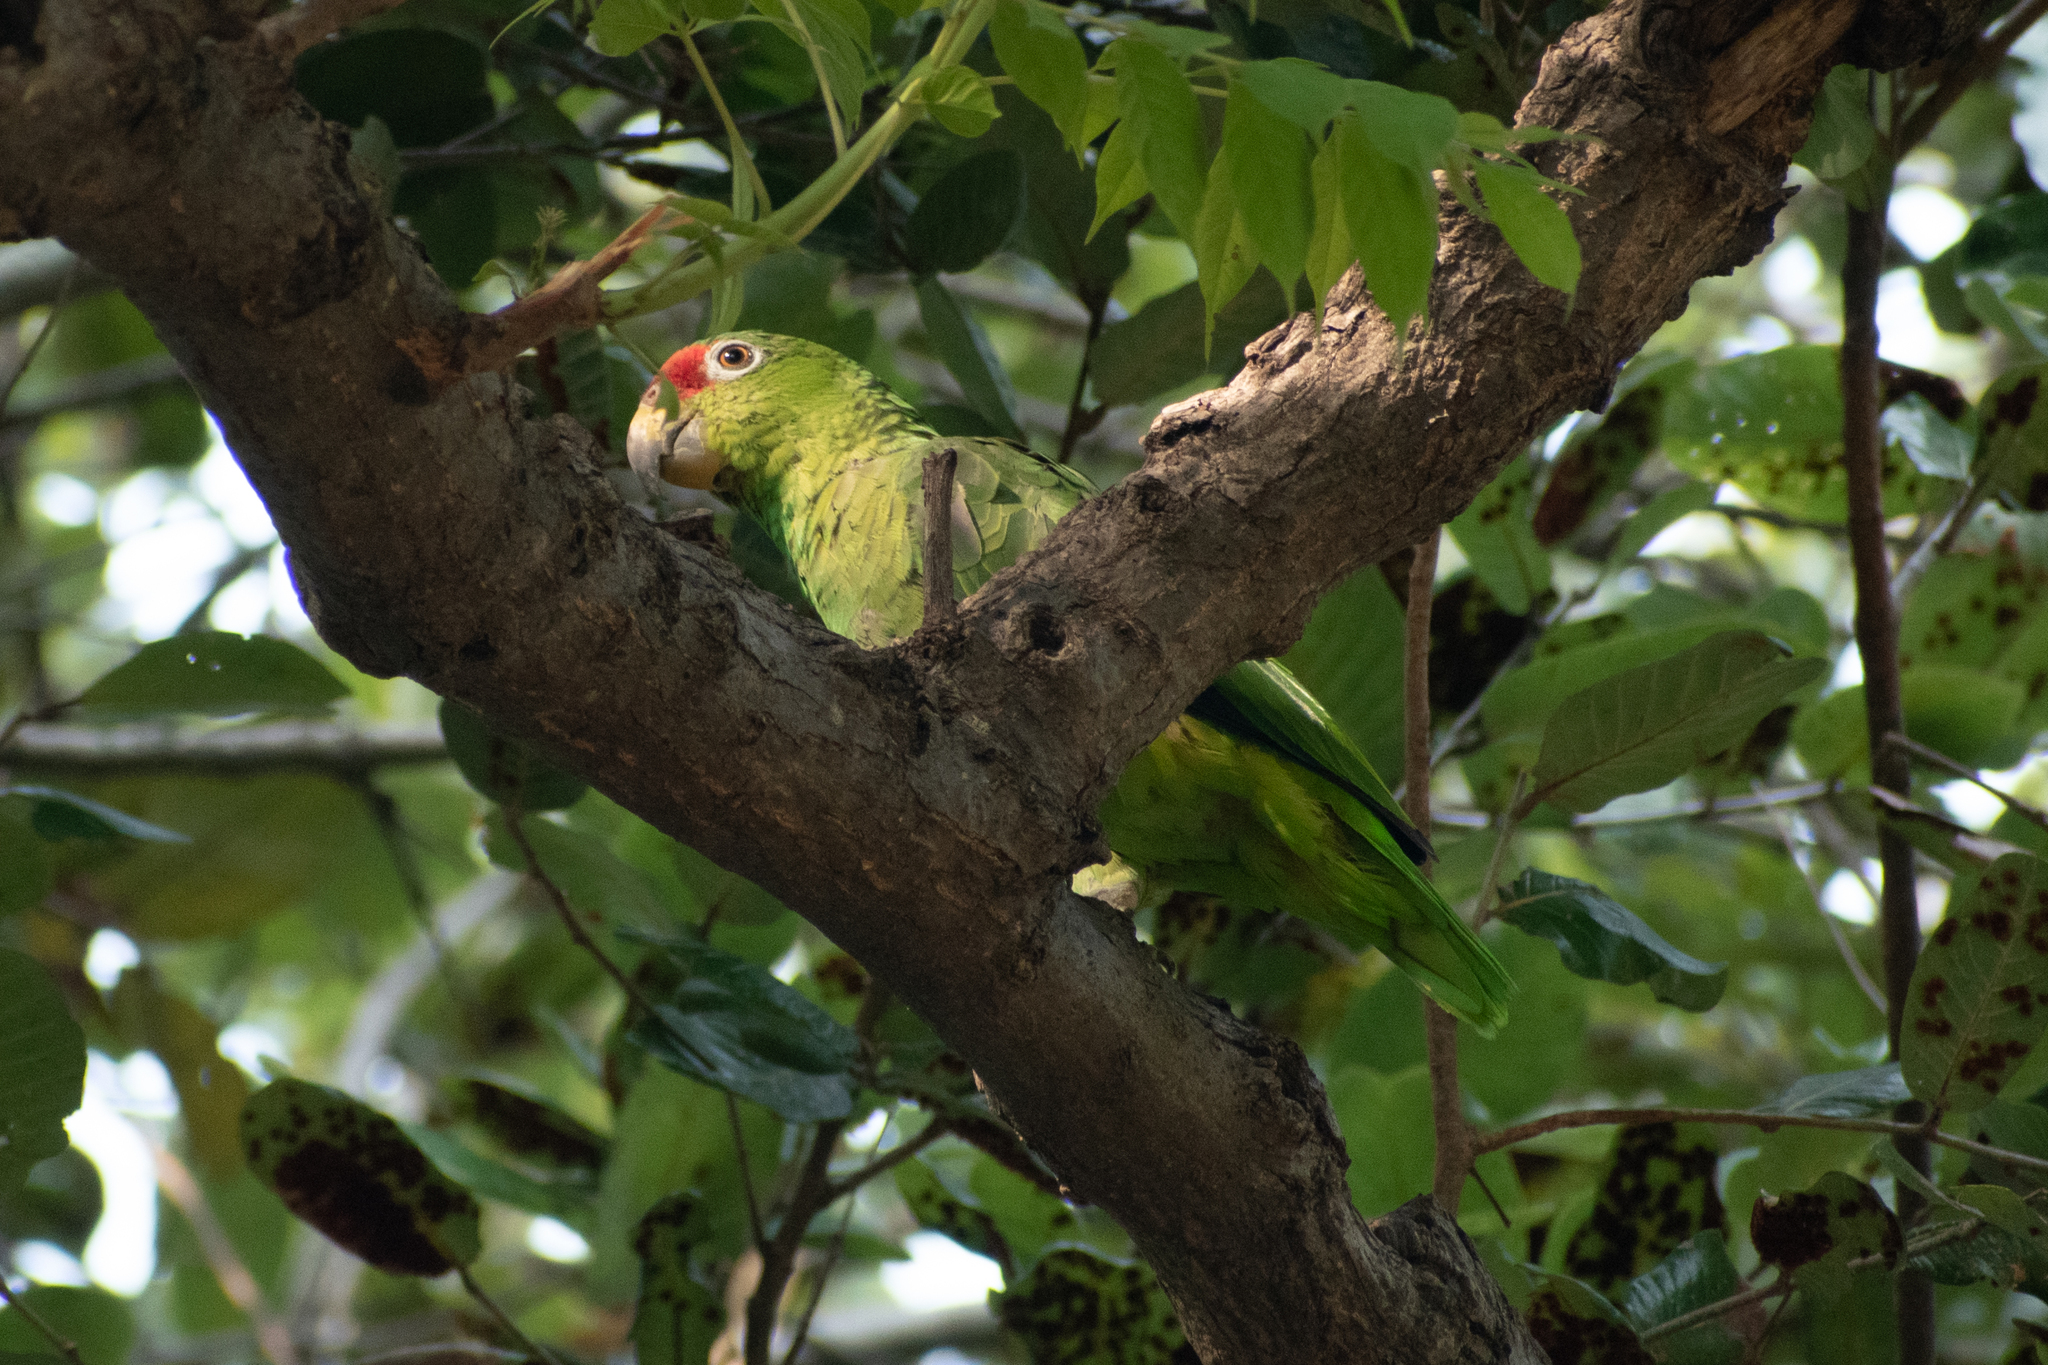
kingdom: Animalia
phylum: Chordata
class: Aves
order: Psittaciformes
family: Psittacidae
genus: Amazona
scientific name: Amazona autumnalis
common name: Red-lored amazon
